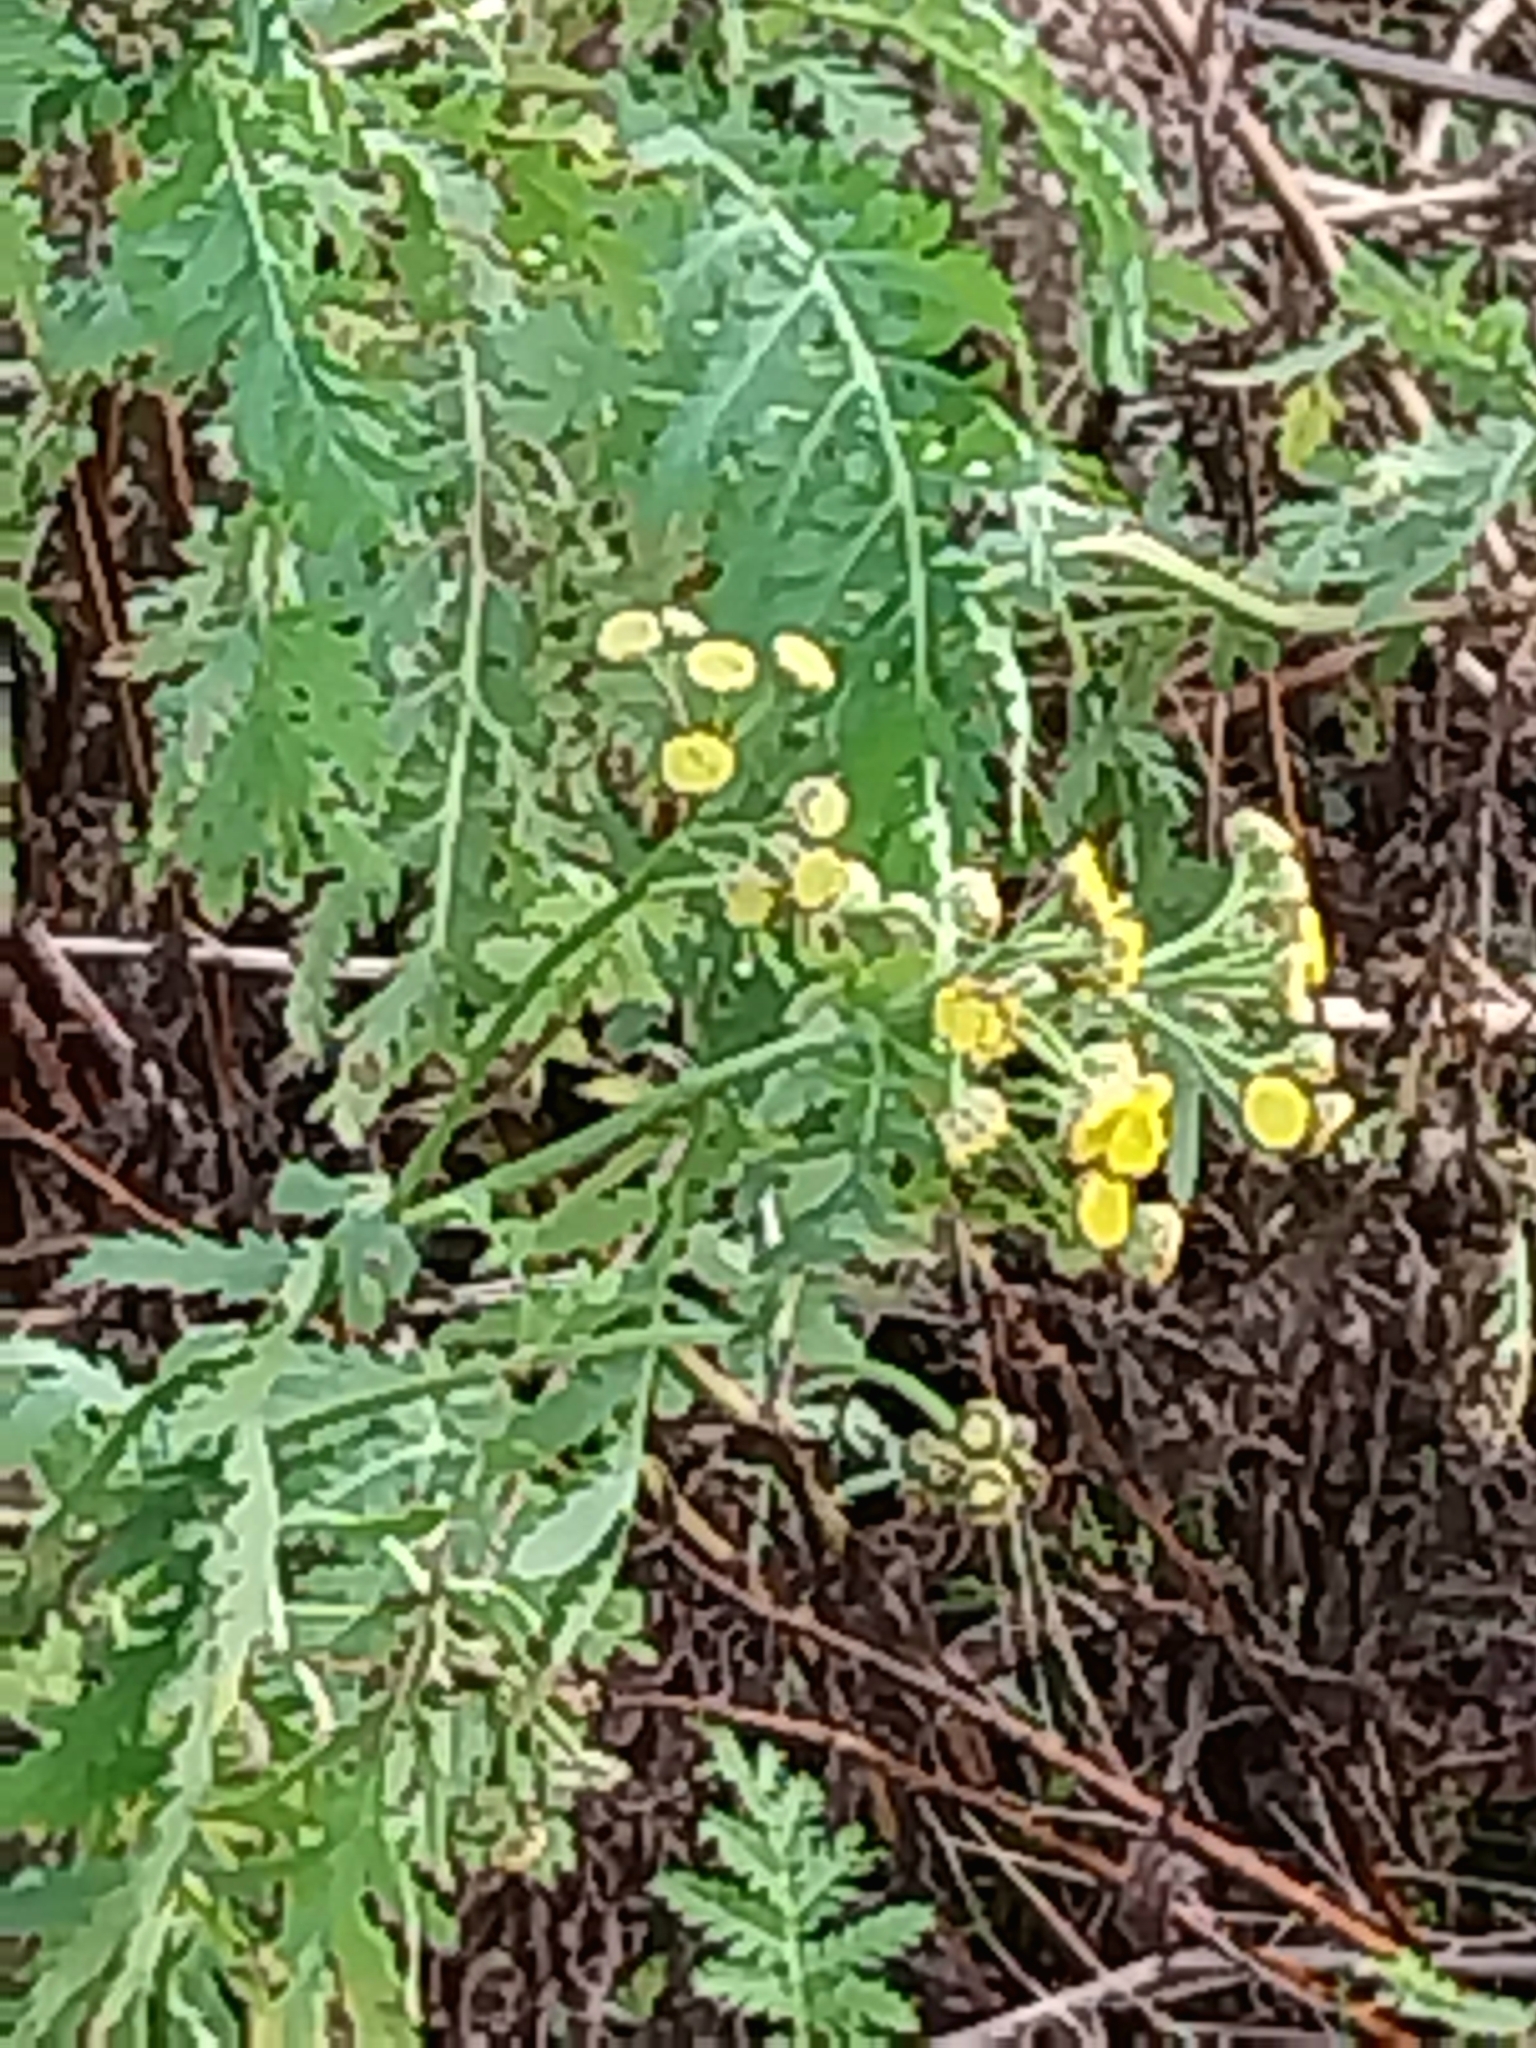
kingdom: Plantae
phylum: Tracheophyta
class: Magnoliopsida
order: Asterales
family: Asteraceae
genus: Tanacetum
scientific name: Tanacetum vulgare
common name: Common tansy
